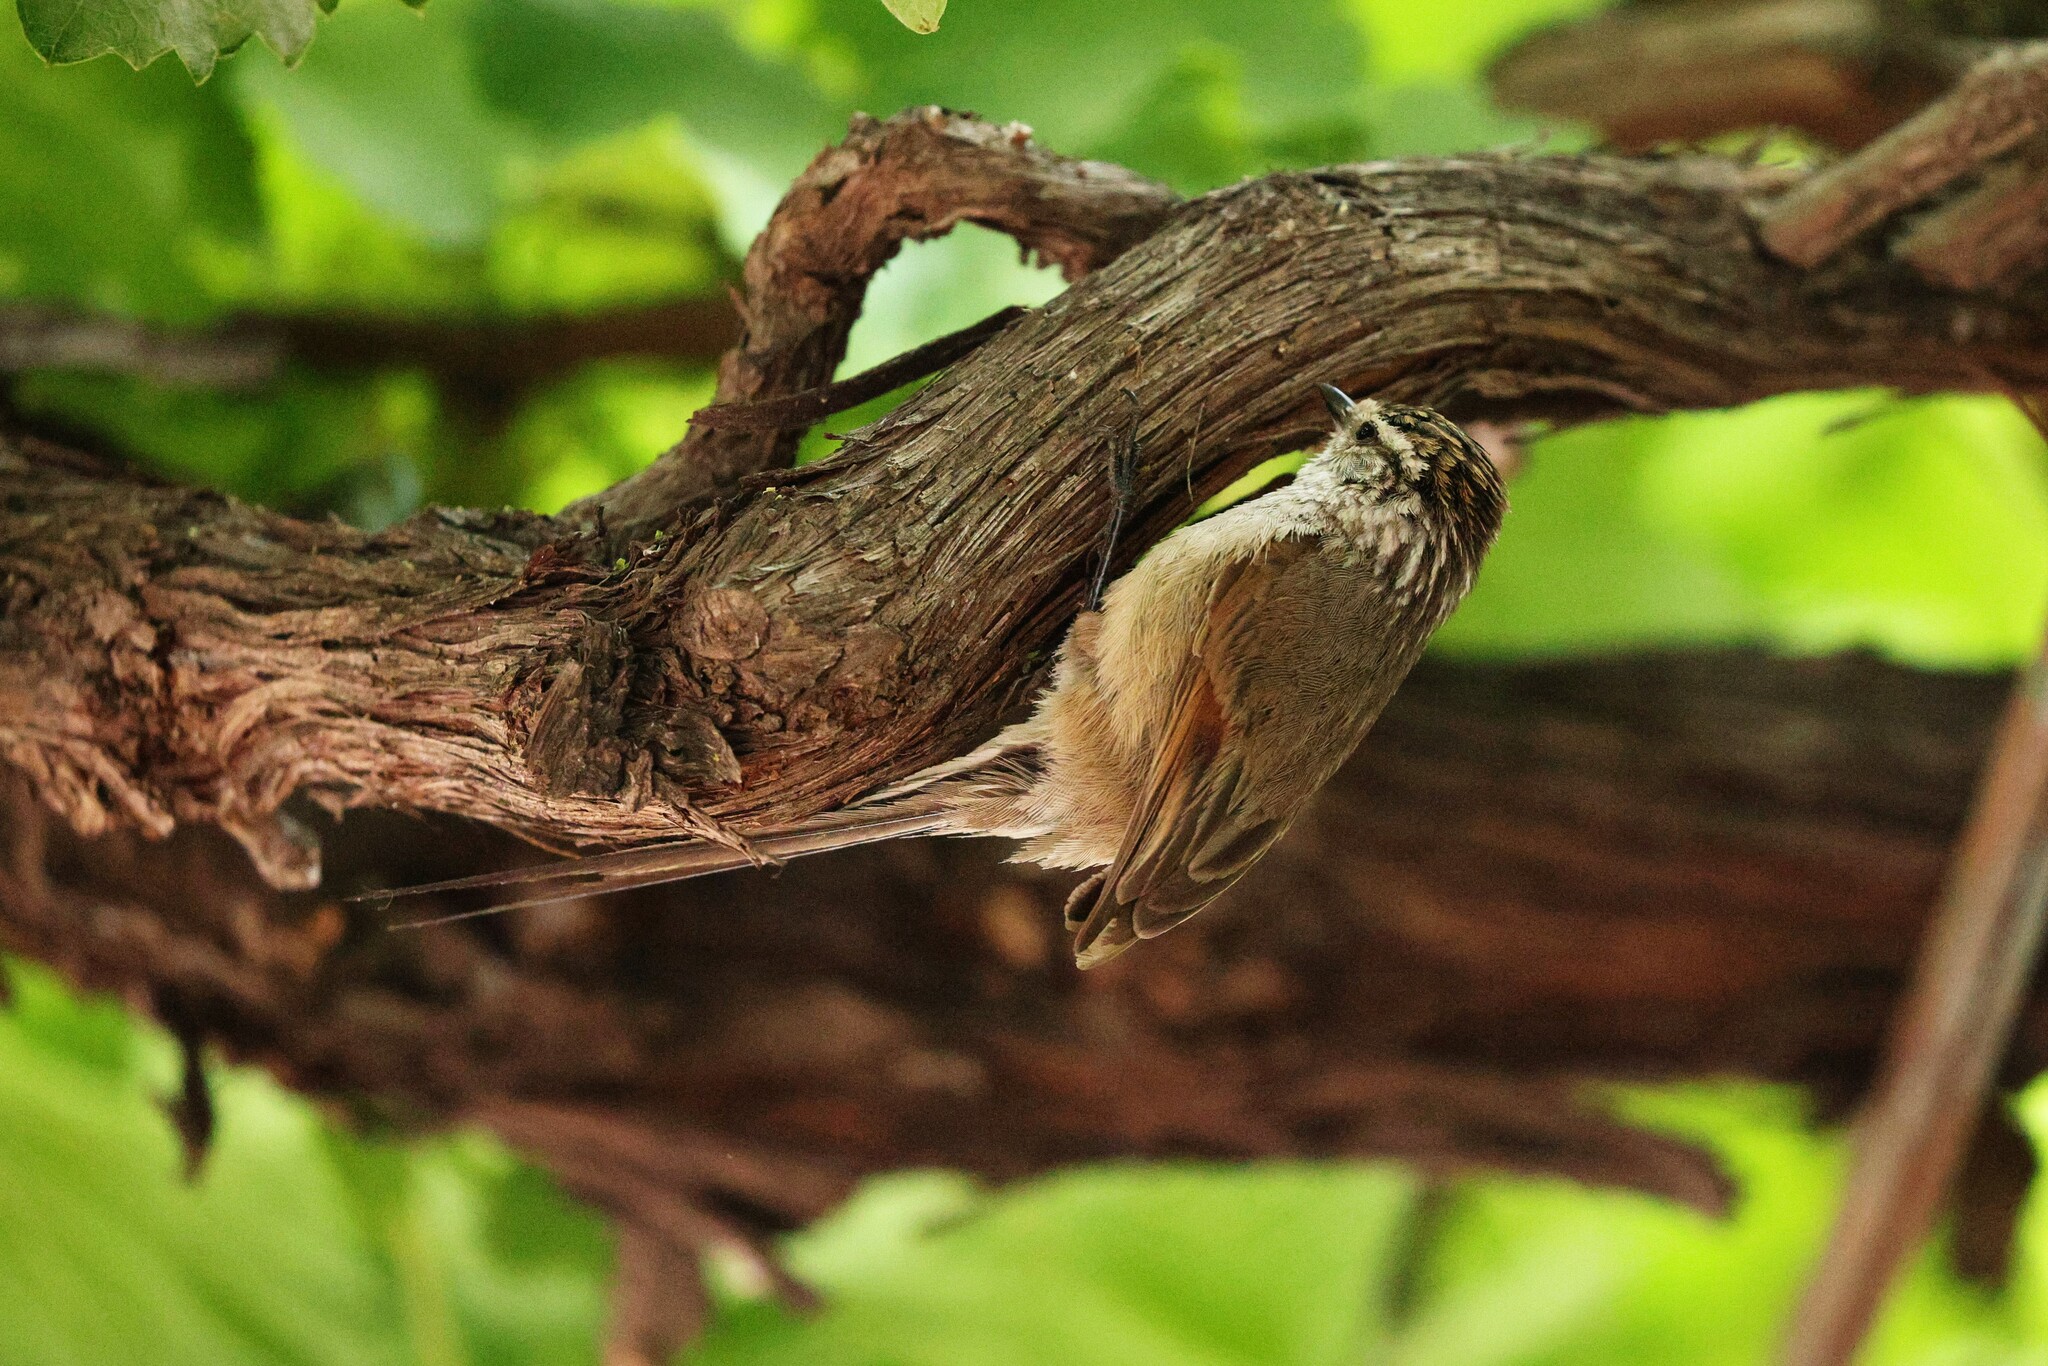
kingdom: Animalia
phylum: Chordata
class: Aves
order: Passeriformes
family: Furnariidae
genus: Leptasthenura
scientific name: Leptasthenura aegithaloides
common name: Plain-mantled tit-spinetail
